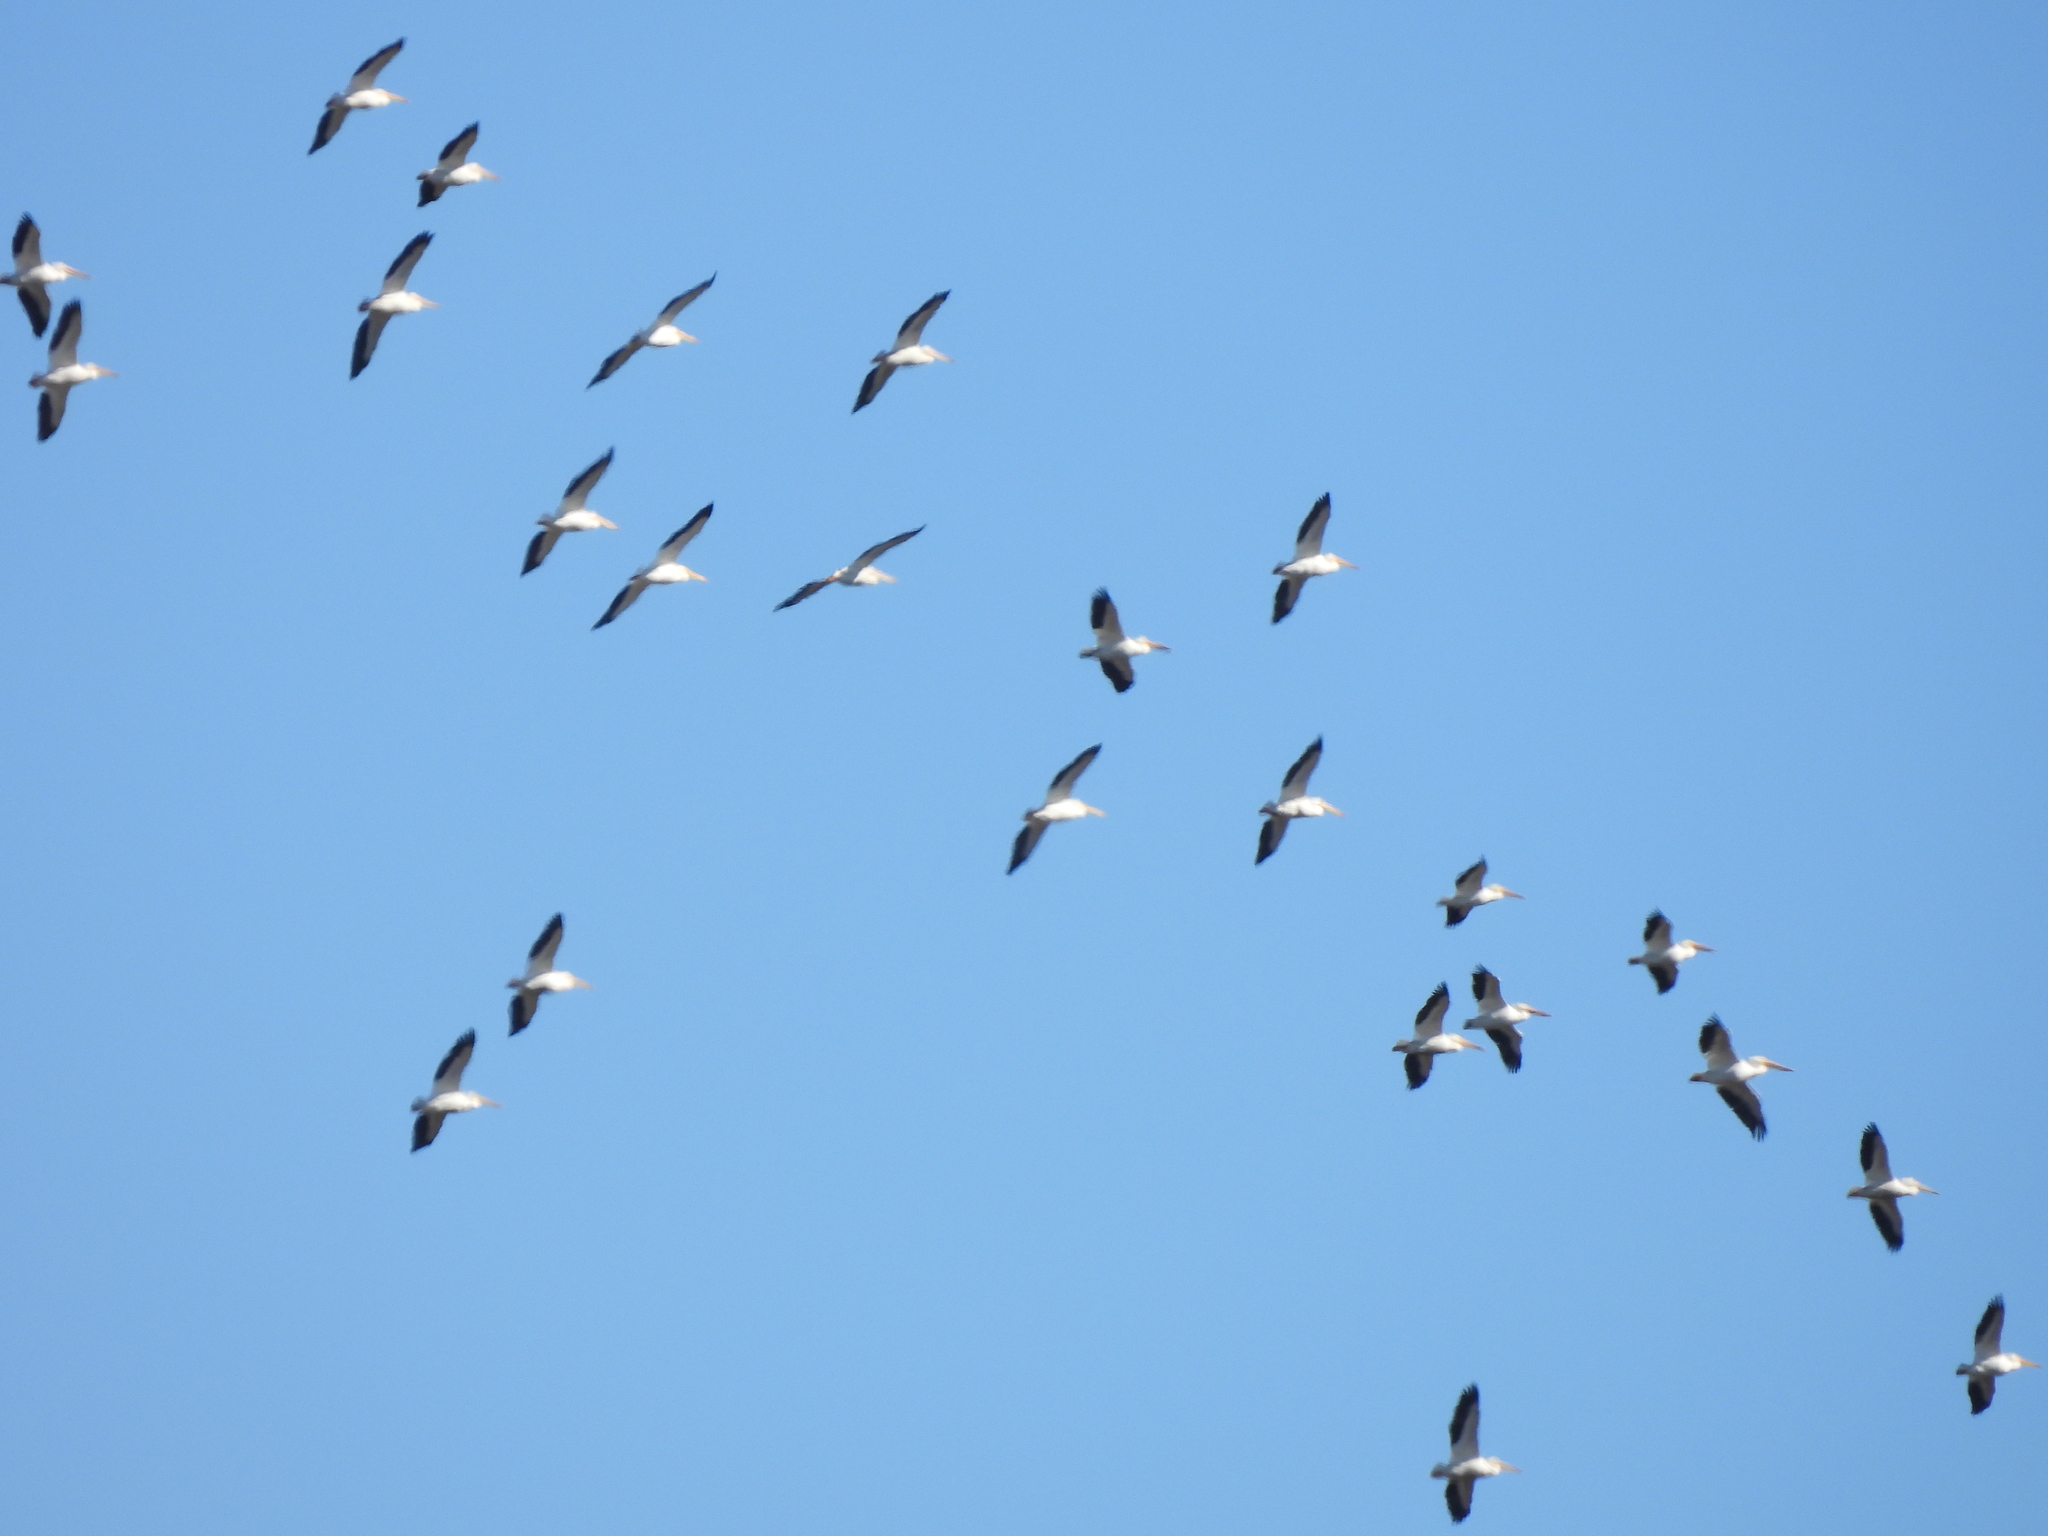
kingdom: Animalia
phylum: Chordata
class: Aves
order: Pelecaniformes
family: Pelecanidae
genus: Pelecanus
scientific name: Pelecanus erythrorhynchos
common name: American white pelican
